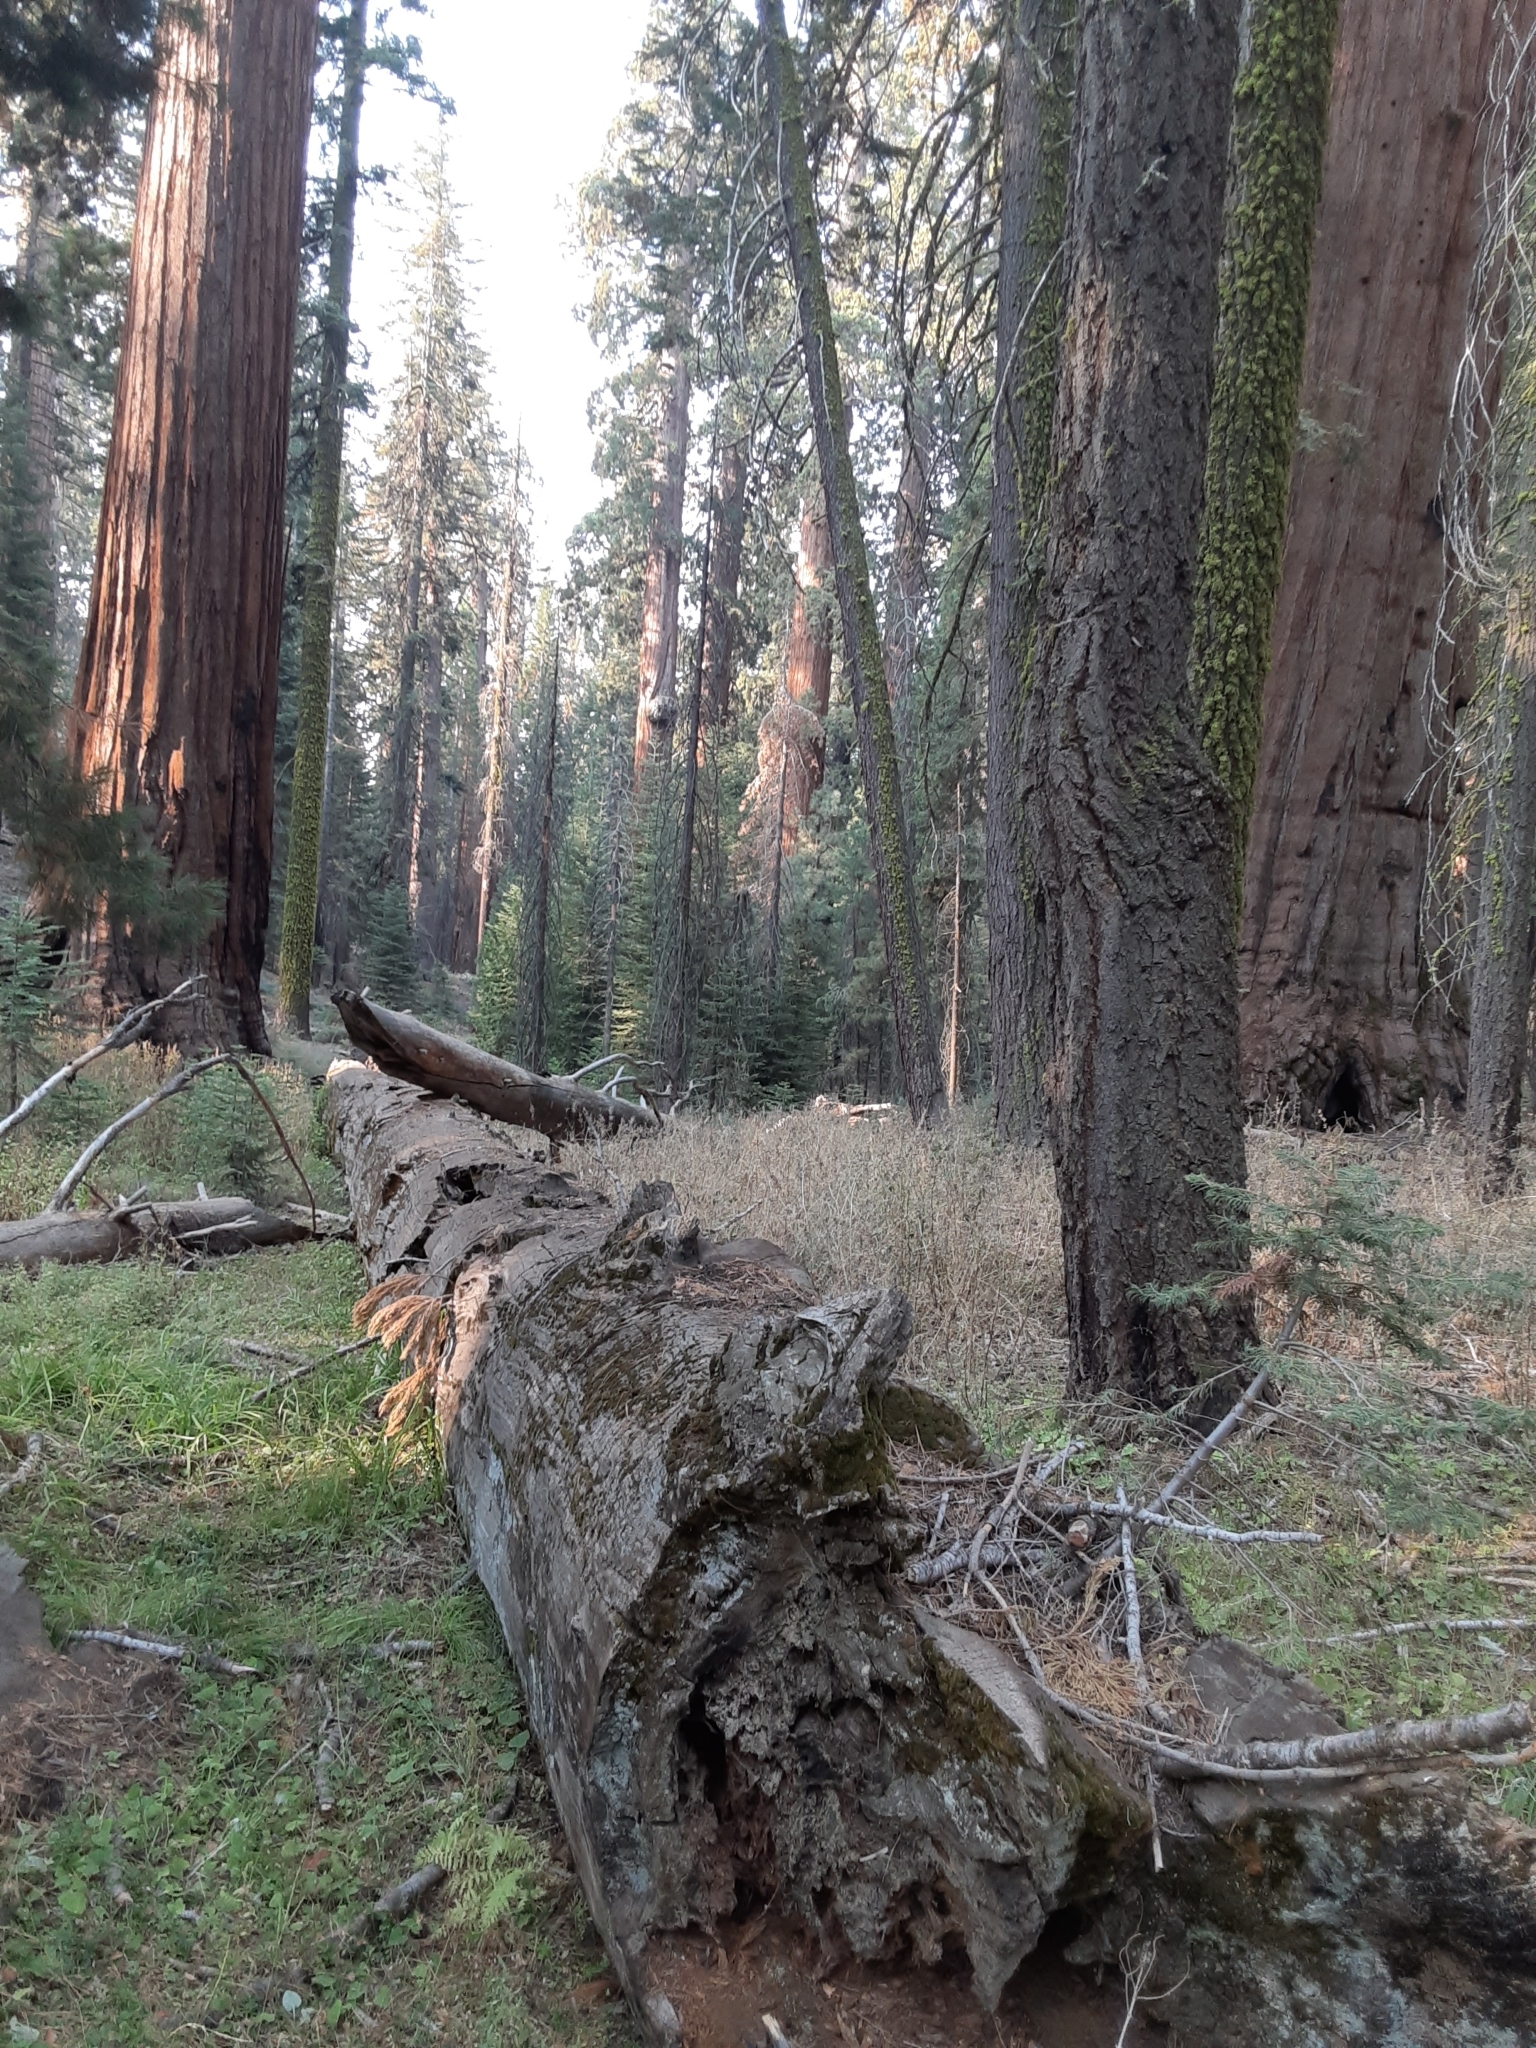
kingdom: Plantae
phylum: Tracheophyta
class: Pinopsida
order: Pinales
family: Cupressaceae
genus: Sequoiadendron
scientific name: Sequoiadendron giganteum
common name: Wellingtonia
